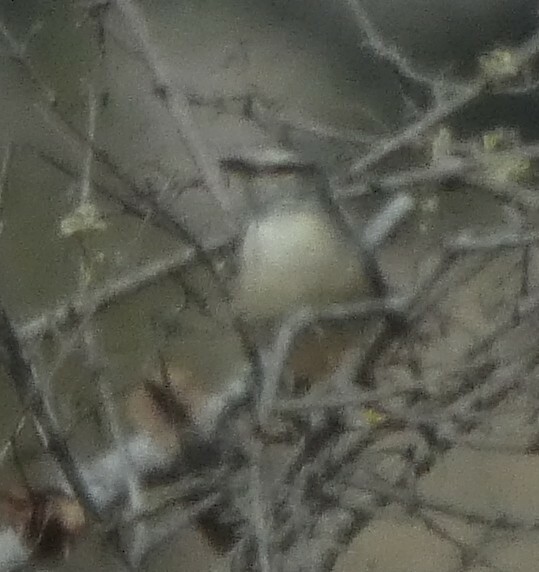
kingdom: Animalia
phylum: Chordata
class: Aves
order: Passeriformes
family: Macrosphenidae
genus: Sylvietta
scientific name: Sylvietta rufescens
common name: Long-billed crombec
